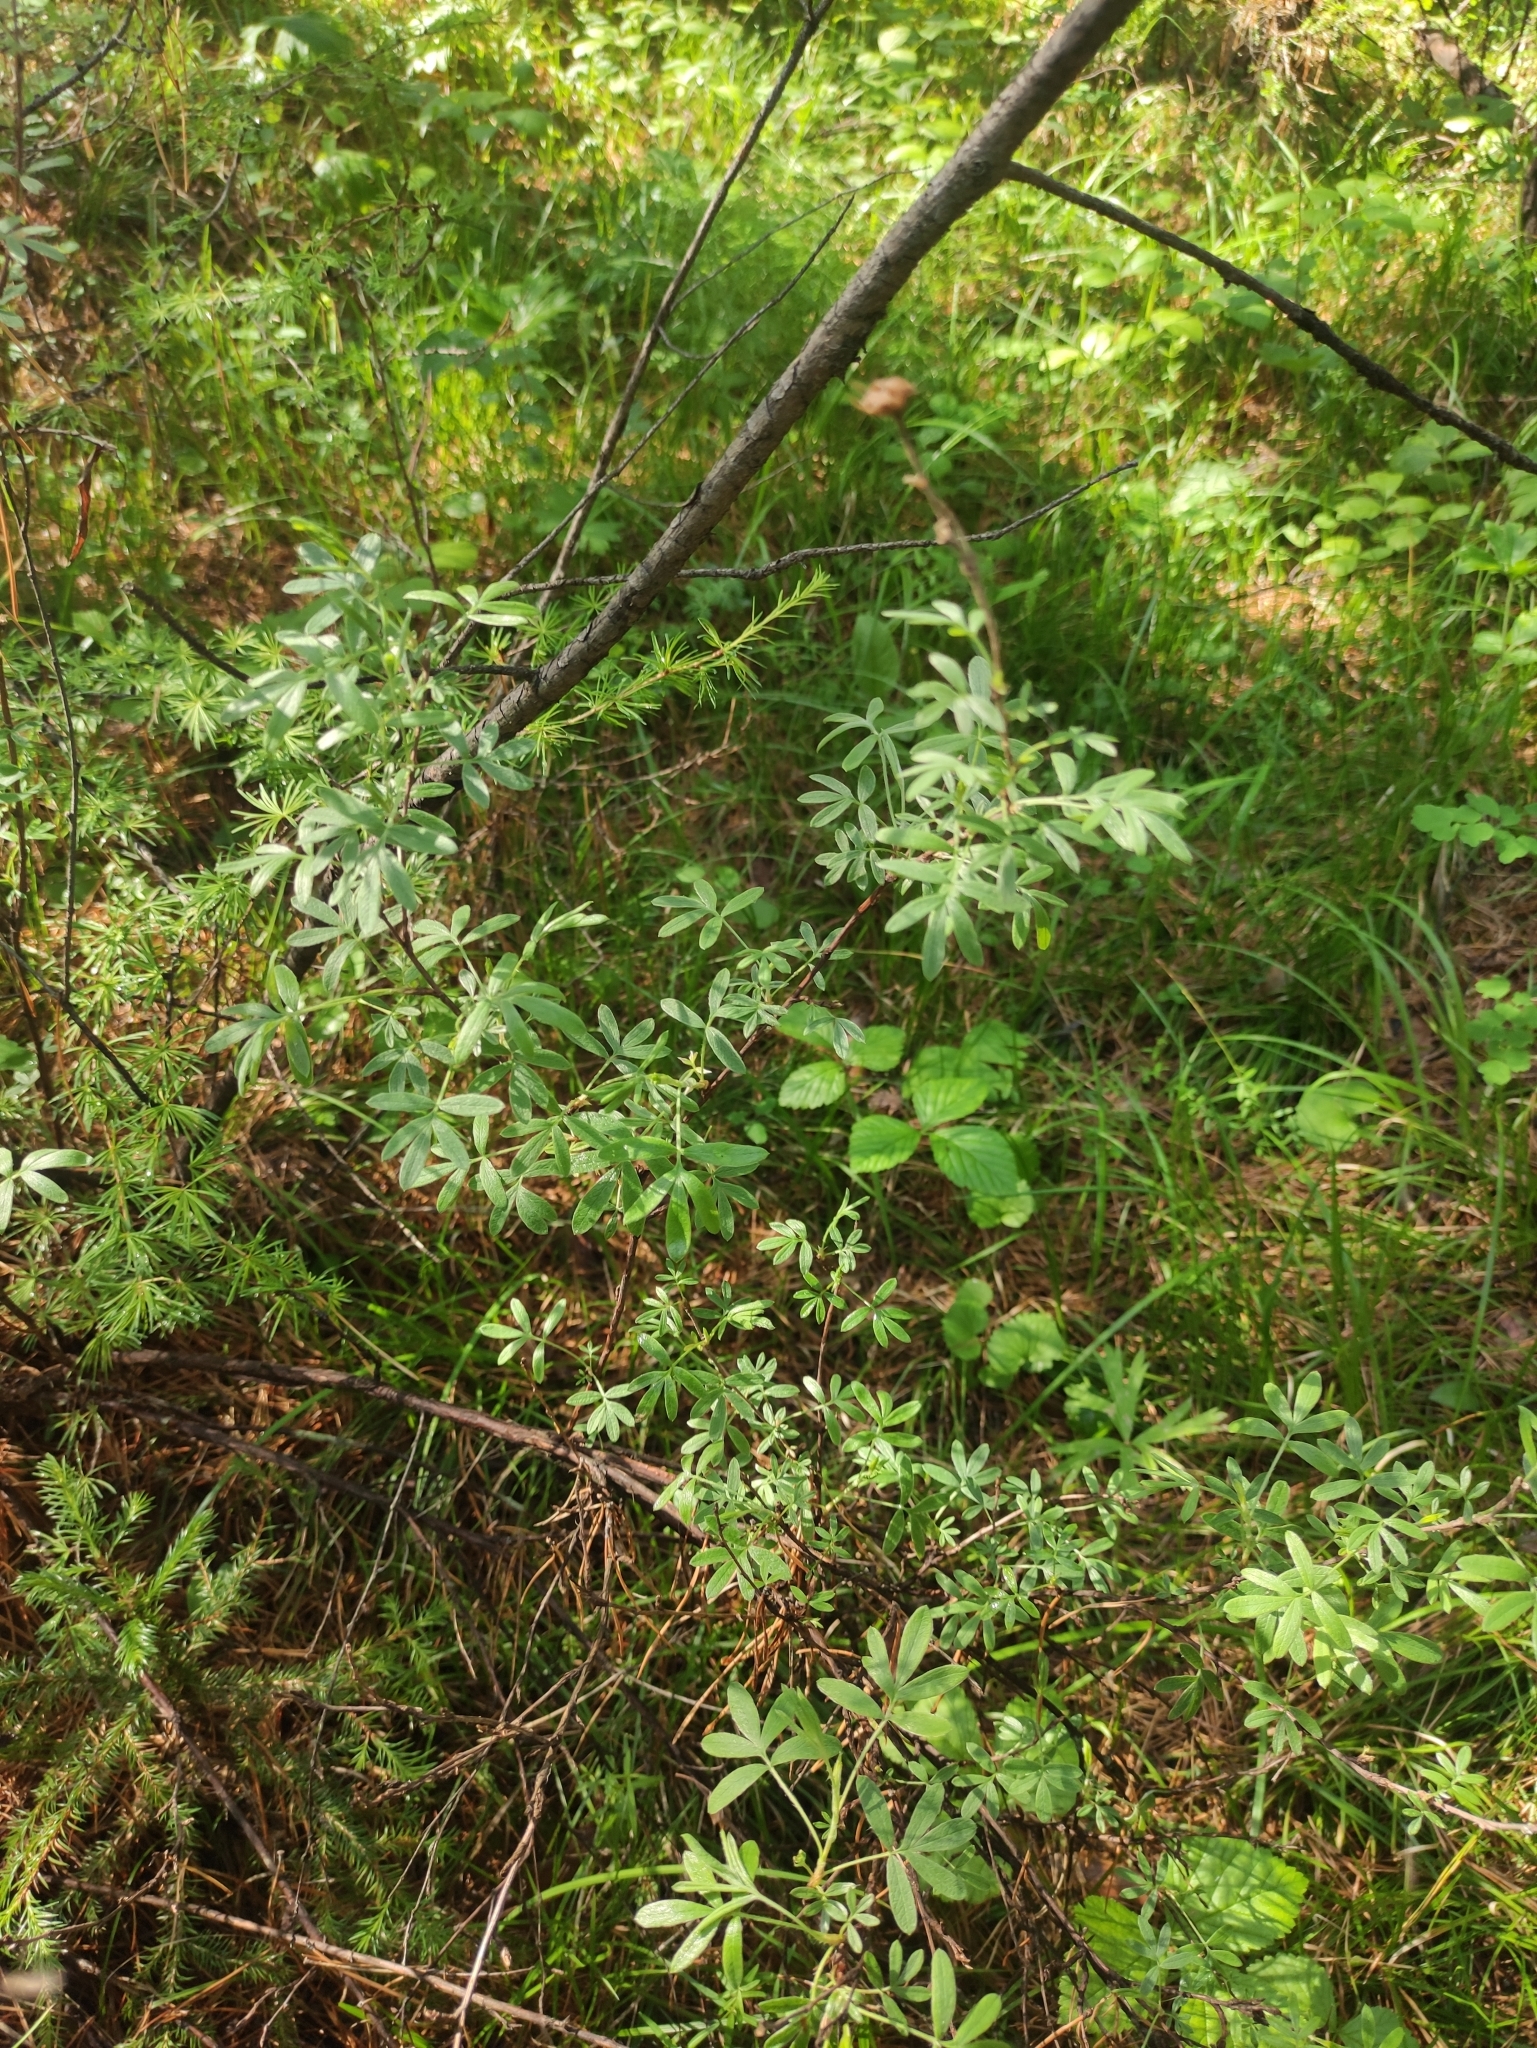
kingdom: Plantae
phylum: Tracheophyta
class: Magnoliopsida
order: Rosales
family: Rosaceae
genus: Dasiphora
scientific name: Dasiphora fruticosa
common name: Shrubby cinquefoil
